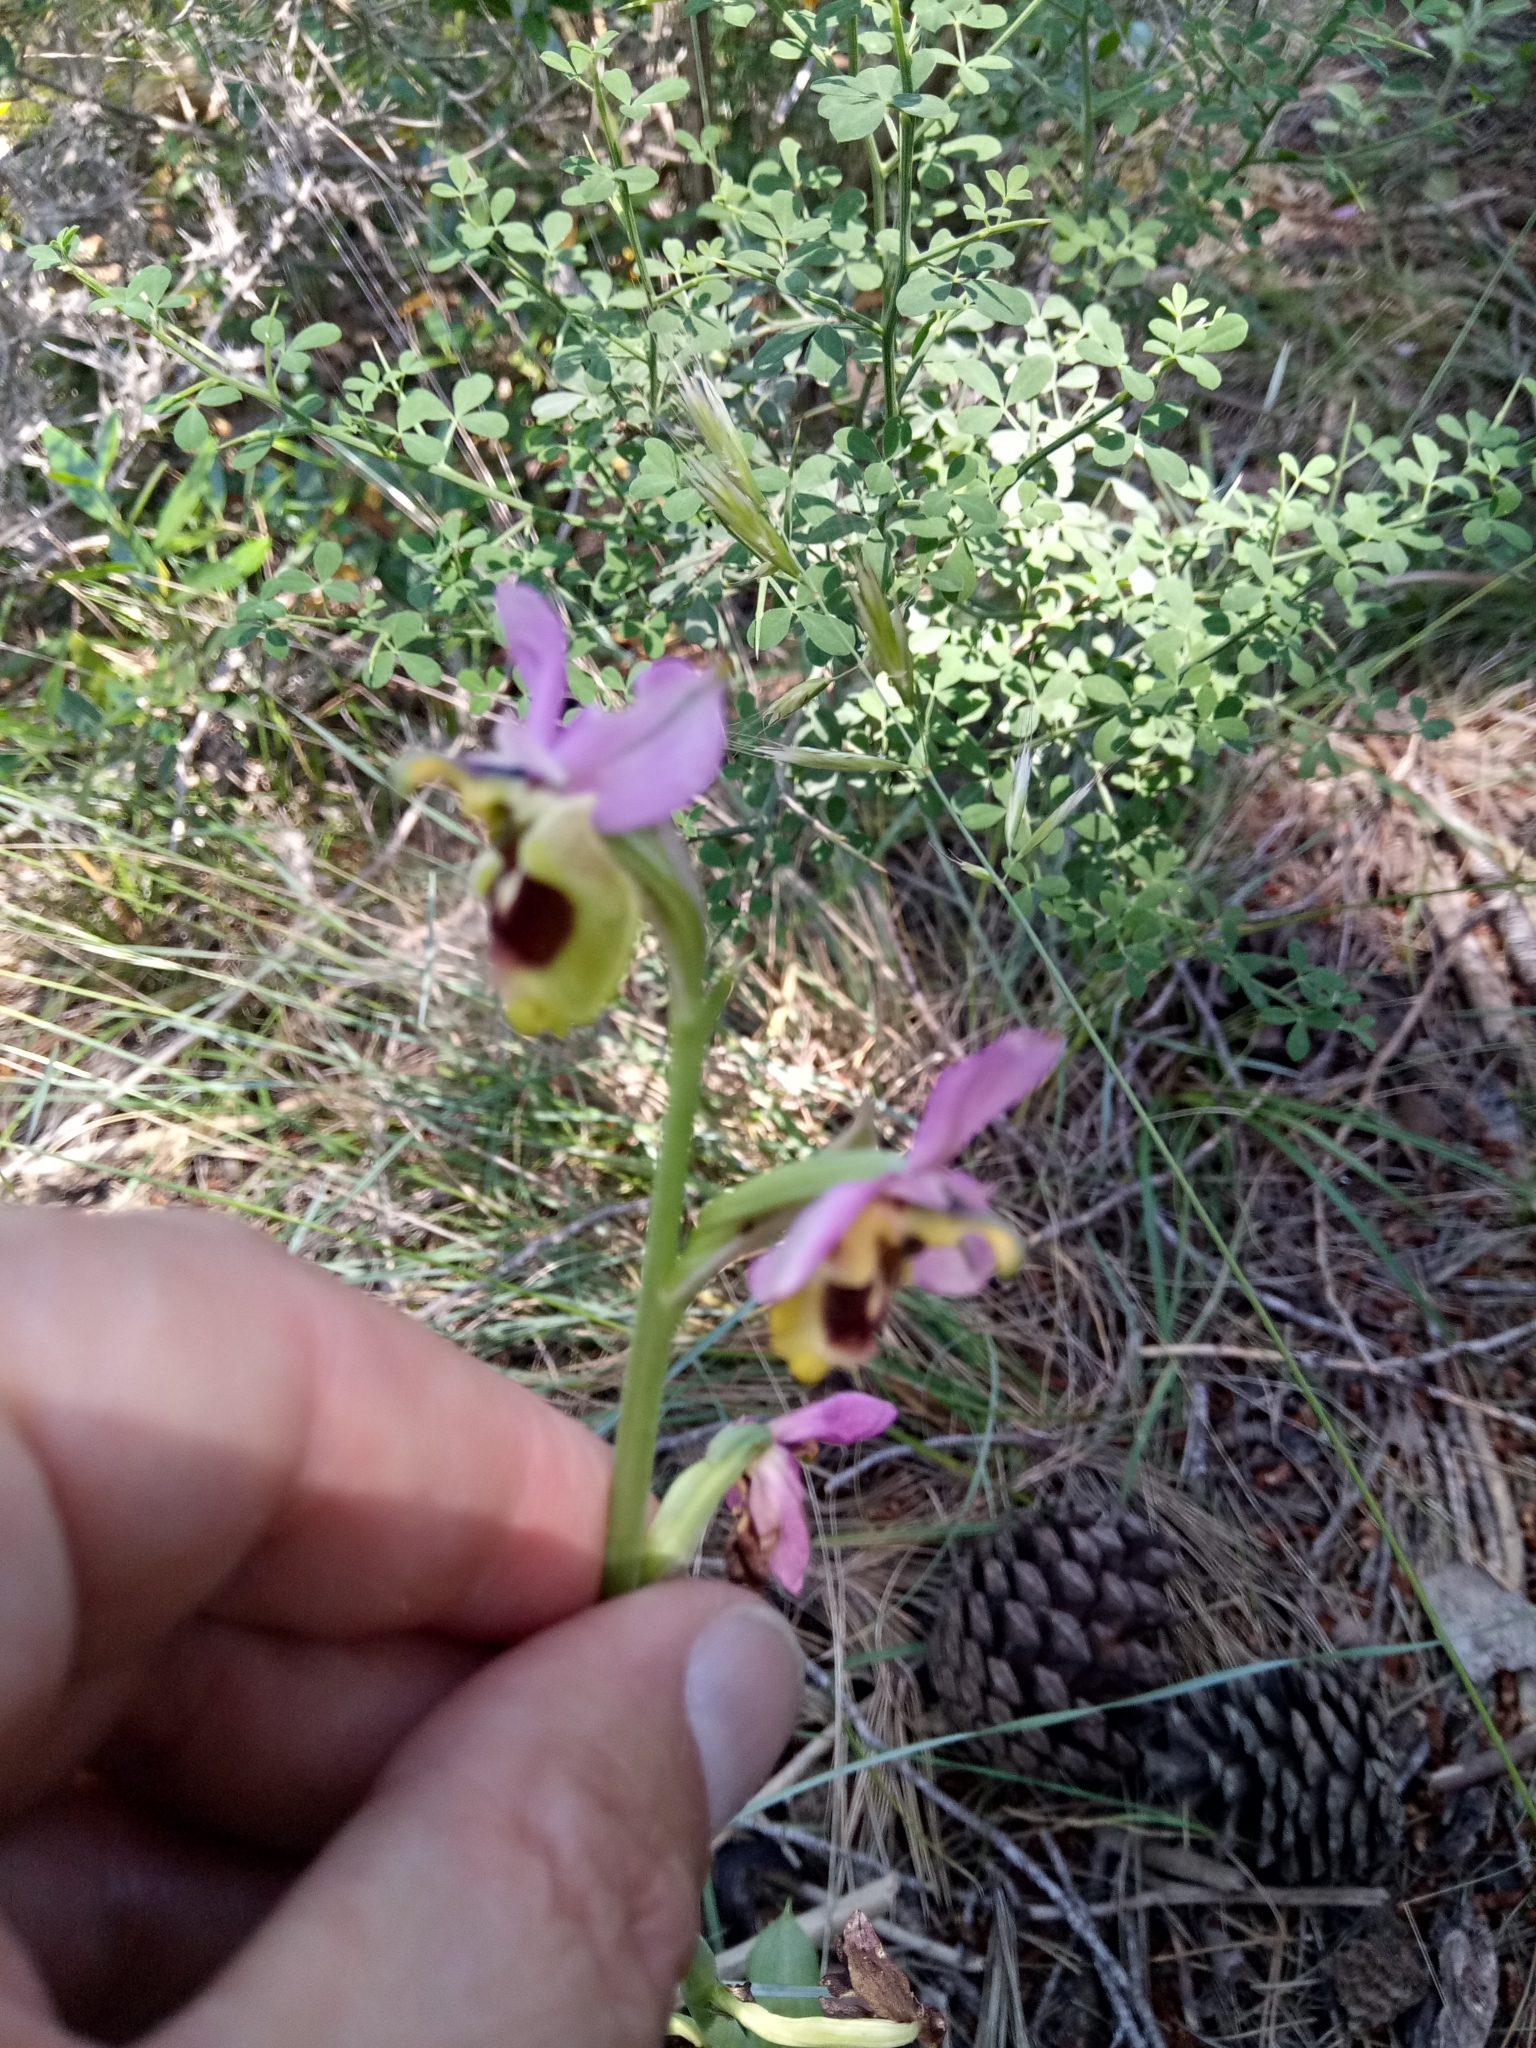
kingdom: Plantae
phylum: Tracheophyta
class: Liliopsida
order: Asparagales
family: Orchidaceae
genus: Ophrys
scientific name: Ophrys tenthredinifera
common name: Sawfly orchid
